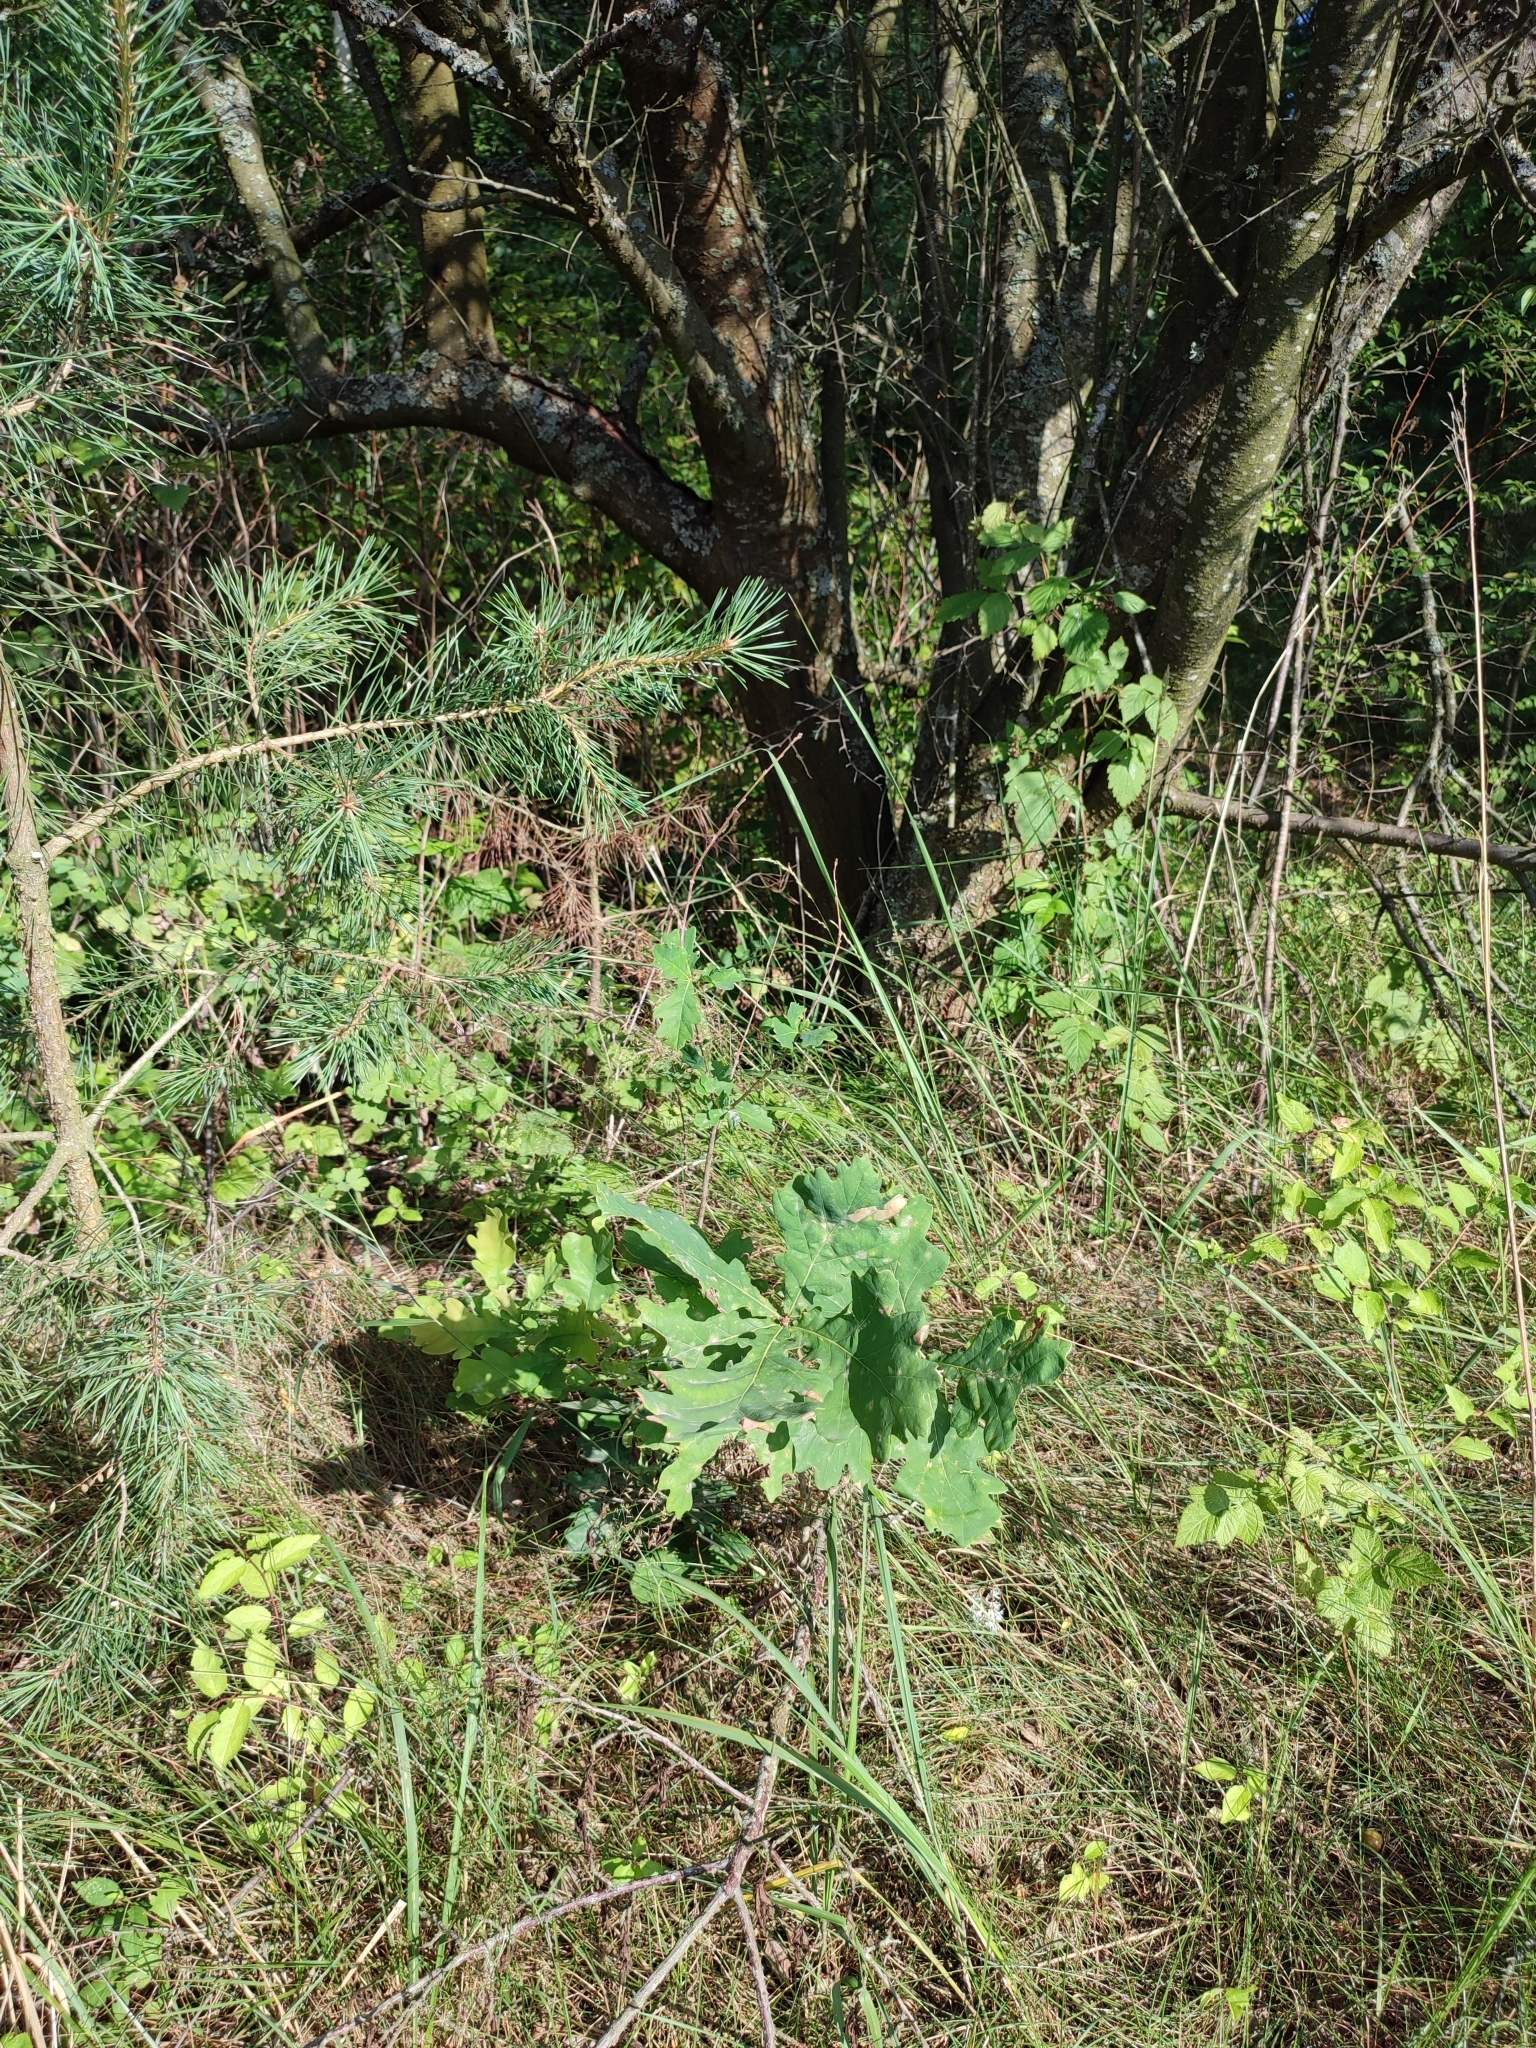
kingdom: Plantae
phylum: Tracheophyta
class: Magnoliopsida
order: Fagales
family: Fagaceae
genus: Quercus
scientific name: Quercus robur
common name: Pedunculate oak
